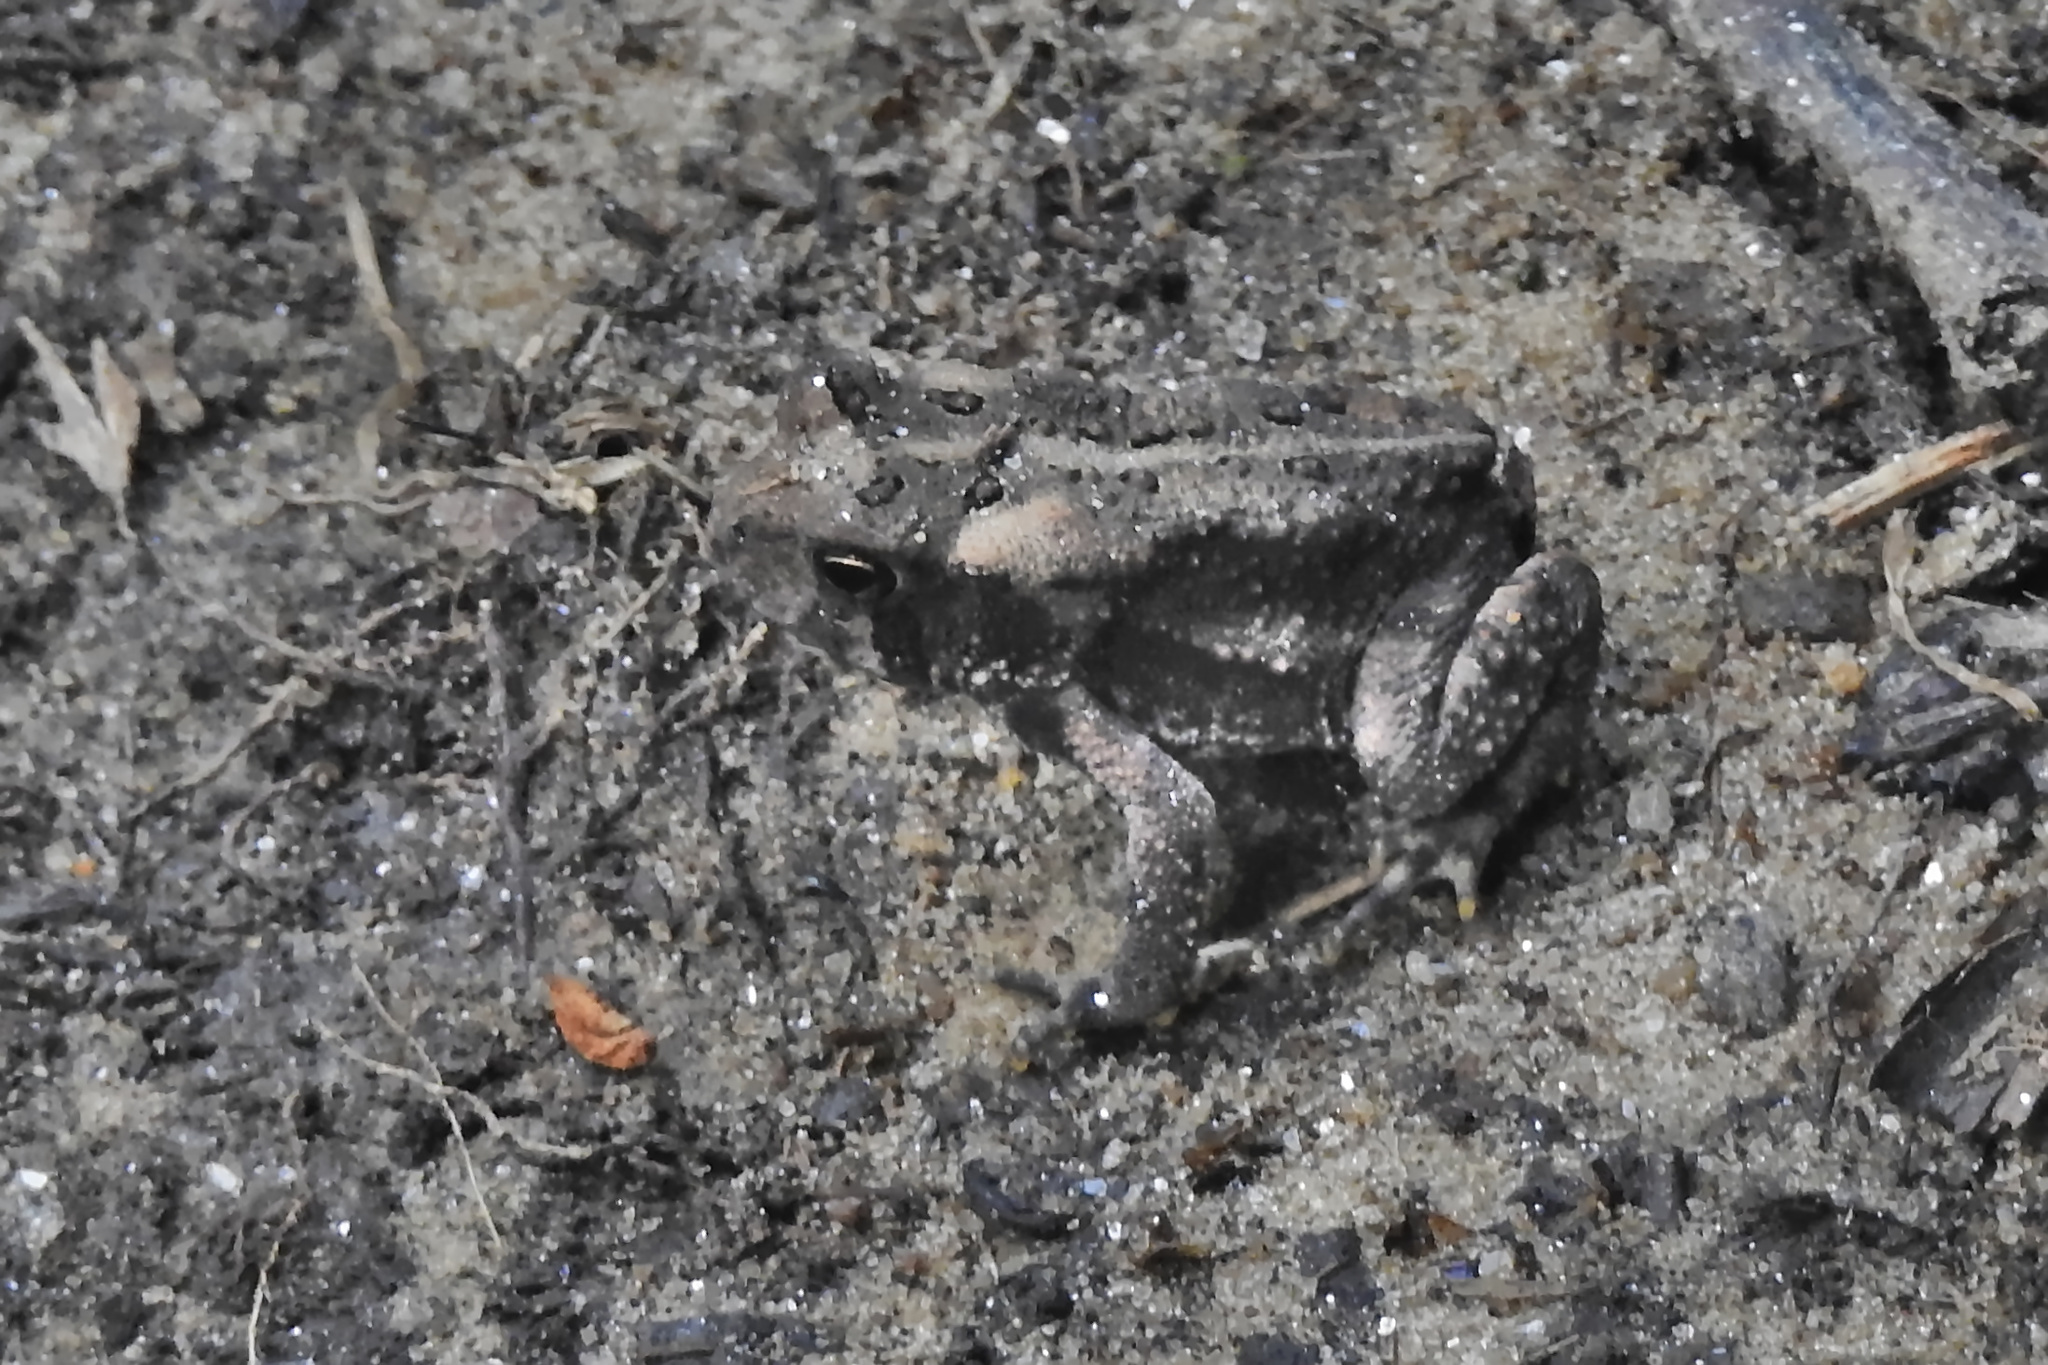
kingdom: Animalia
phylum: Chordata
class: Amphibia
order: Anura
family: Bufonidae
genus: Anaxyrus
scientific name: Anaxyrus americanus
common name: American toad
